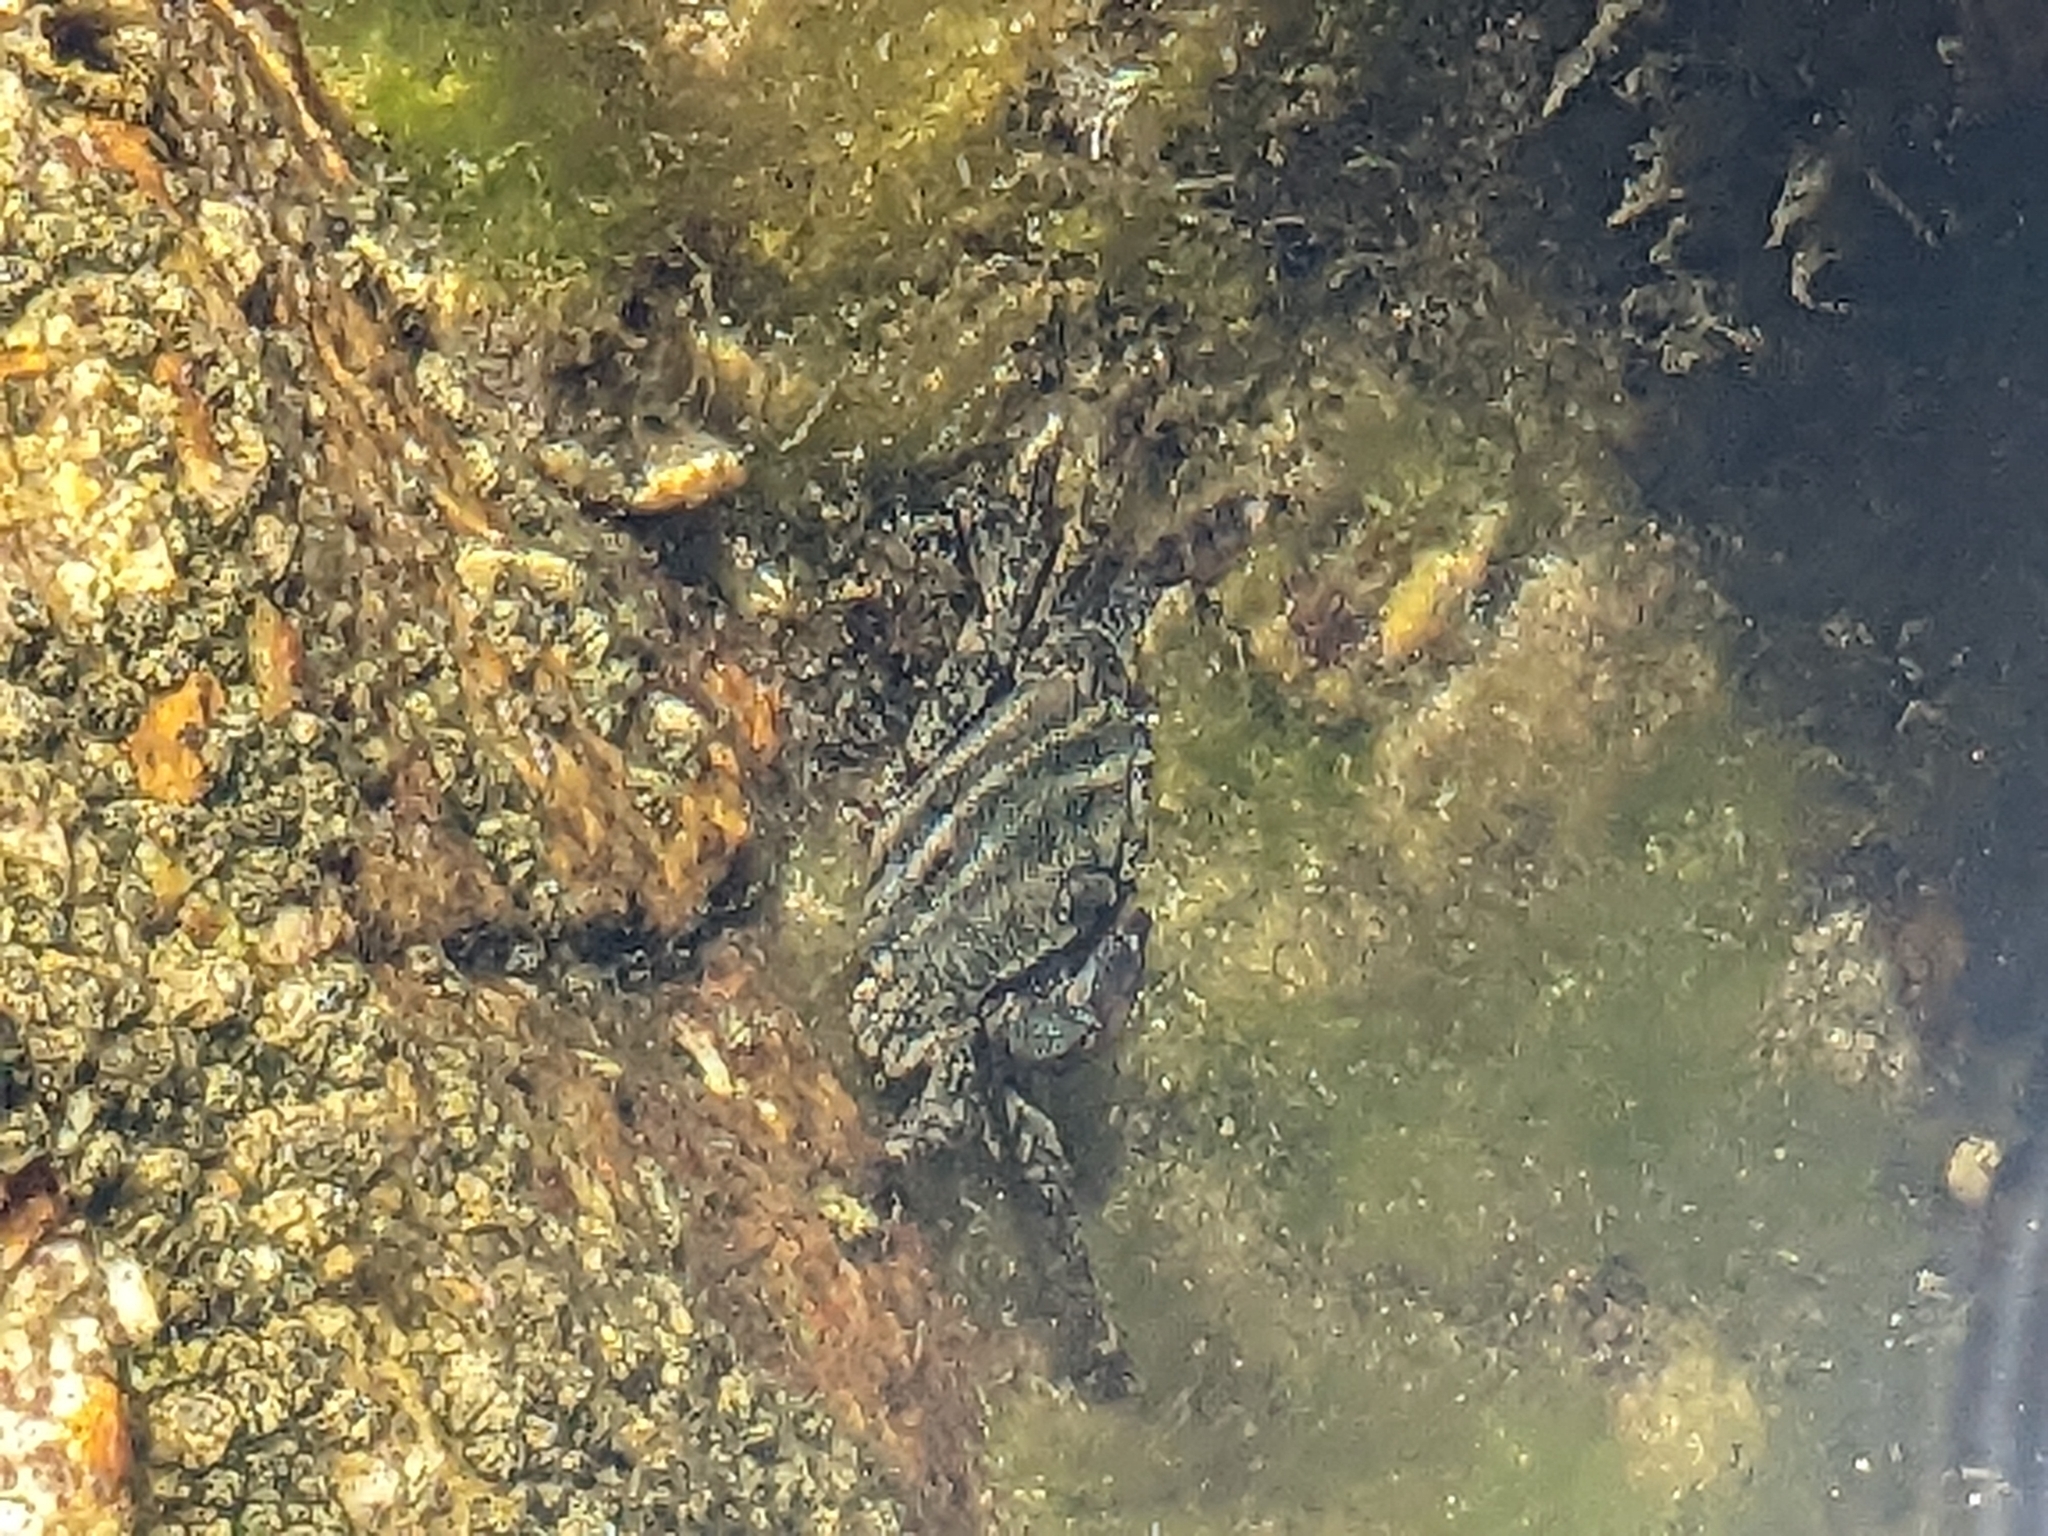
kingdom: Animalia
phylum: Arthropoda
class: Malacostraca
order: Decapoda
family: Grapsidae
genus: Pachygrapsus
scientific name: Pachygrapsus marmoratus
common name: Marbled rock crab
